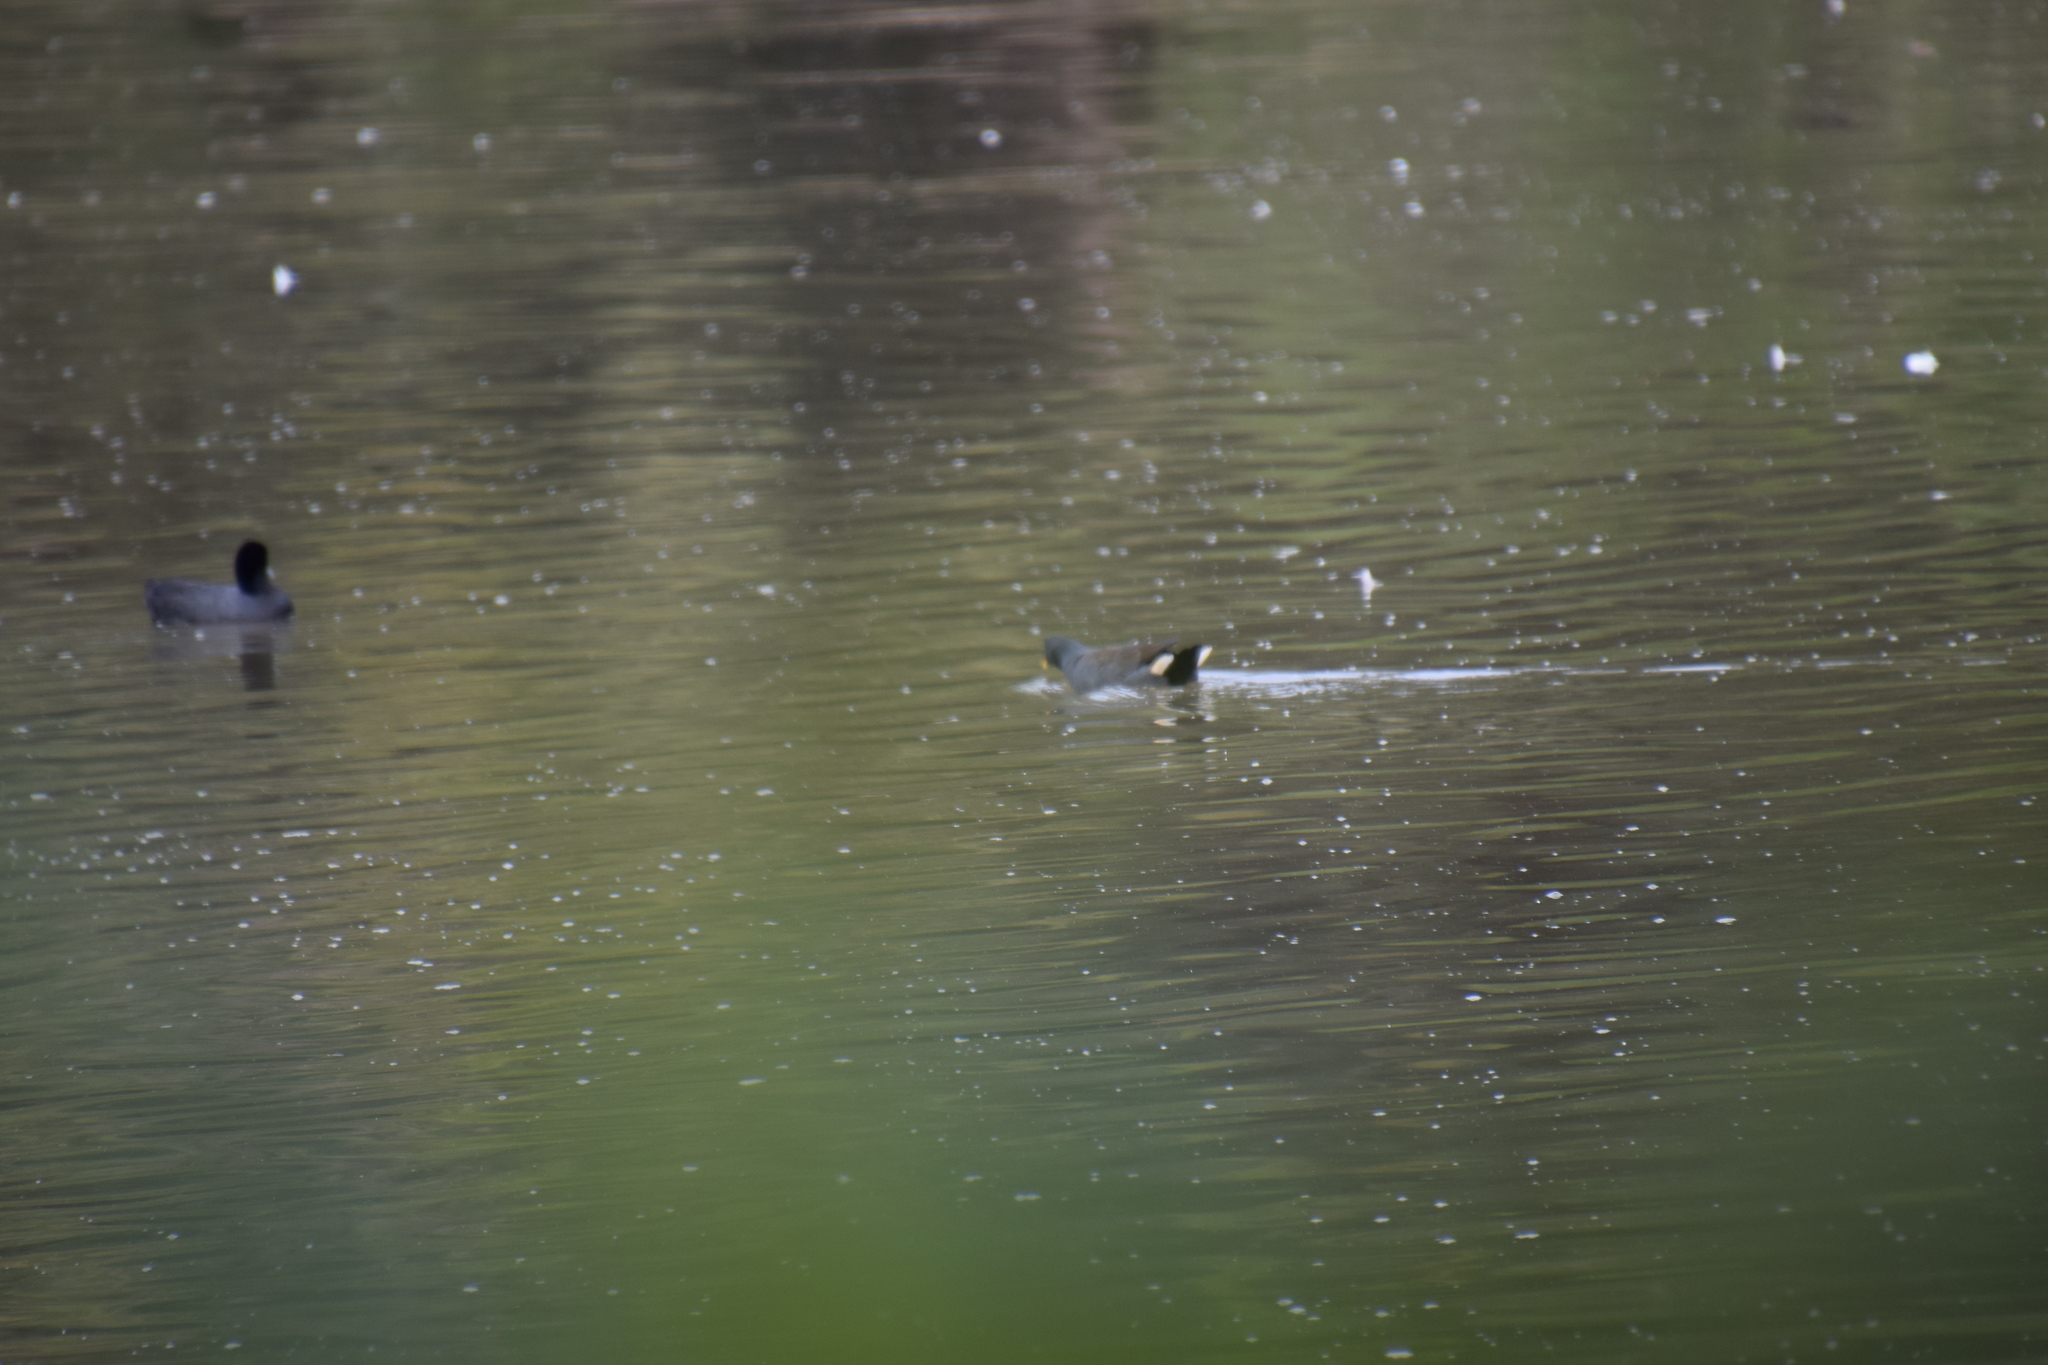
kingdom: Animalia
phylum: Chordata
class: Aves
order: Gruiformes
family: Rallidae
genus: Gallinula
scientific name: Gallinula tenebrosa
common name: Dusky moorhen
